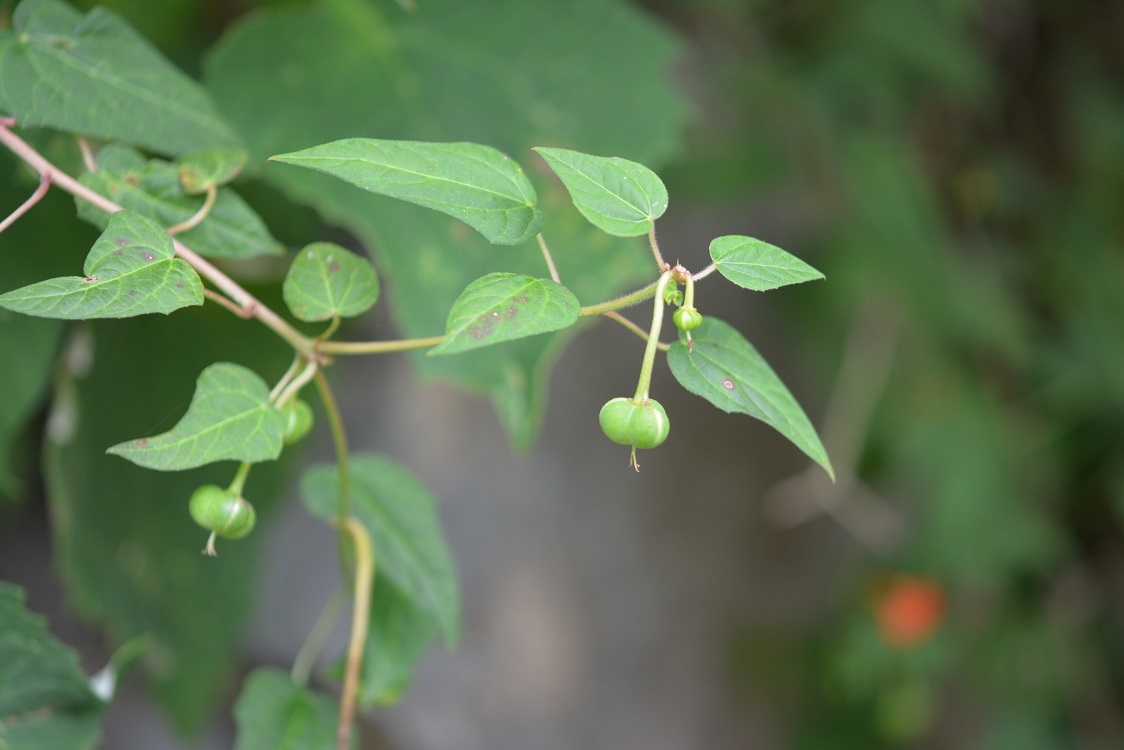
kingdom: Plantae
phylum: Tracheophyta
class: Magnoliopsida
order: Malpighiales
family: Euphorbiaceae
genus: Dalembertia
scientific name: Dalembertia triangularis
